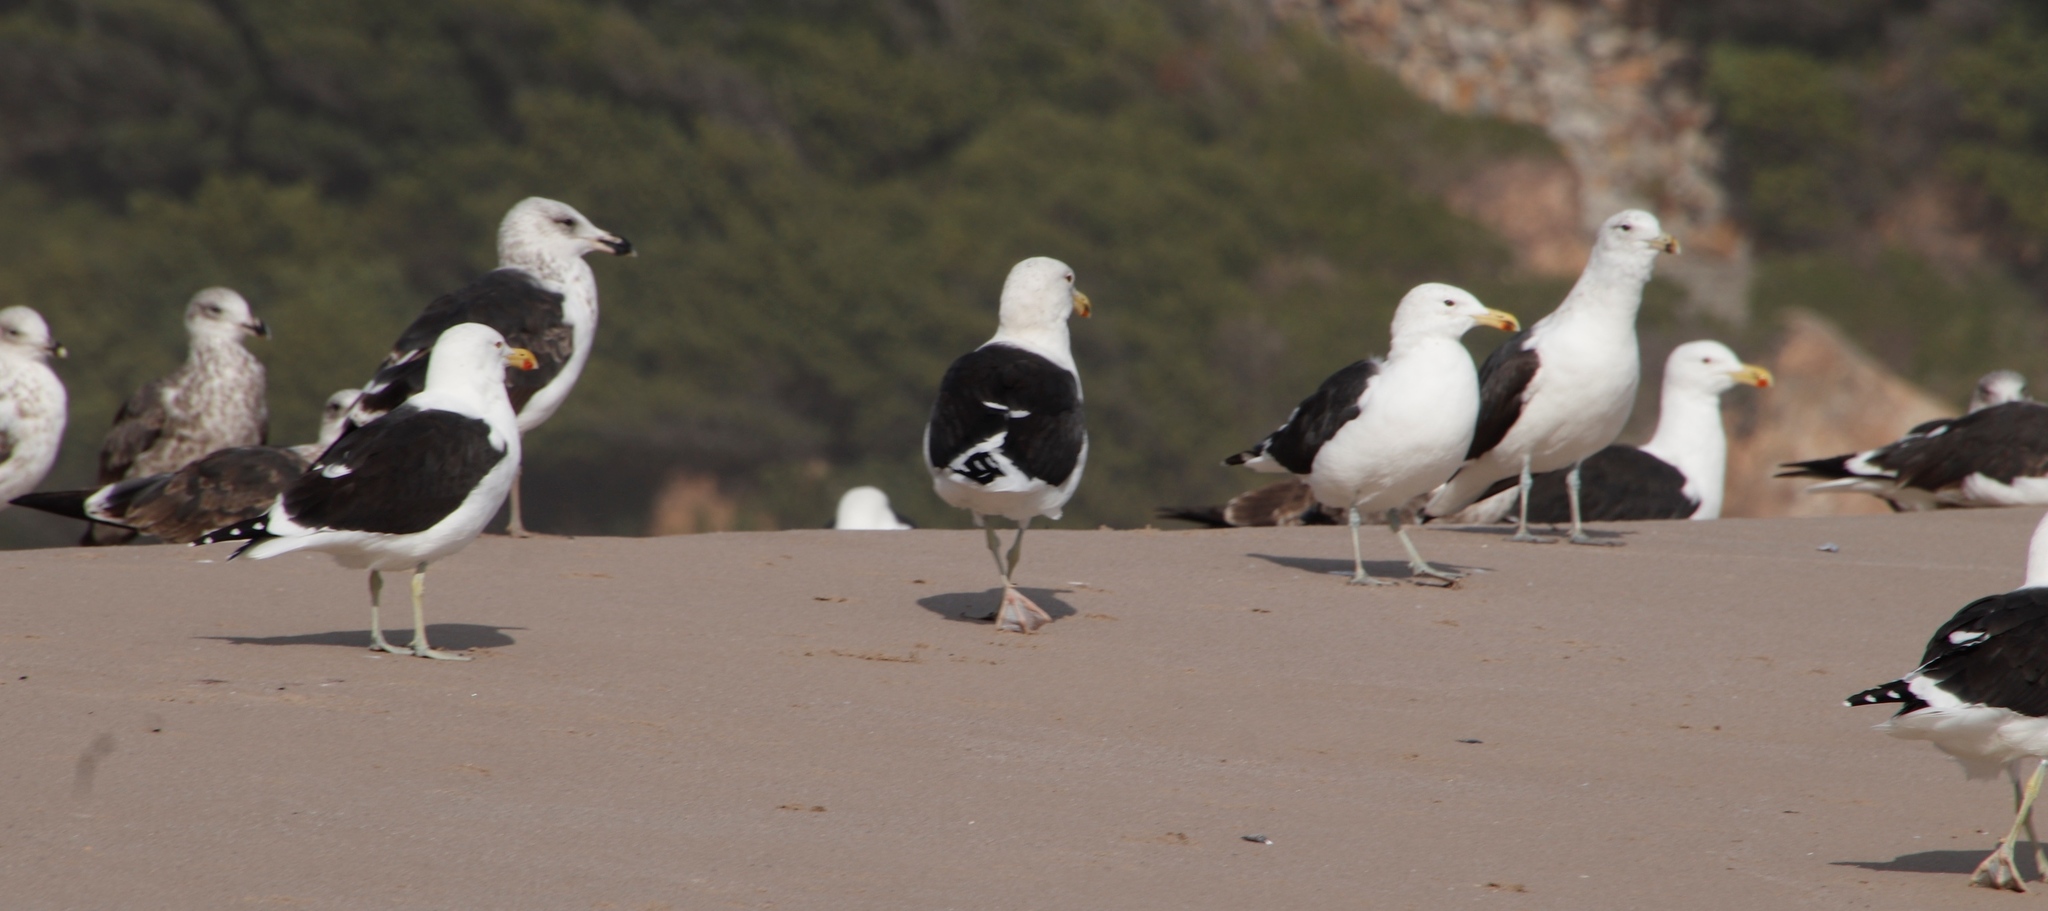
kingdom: Animalia
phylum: Chordata
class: Aves
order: Charadriiformes
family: Laridae
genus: Larus
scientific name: Larus dominicanus
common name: Kelp gull
